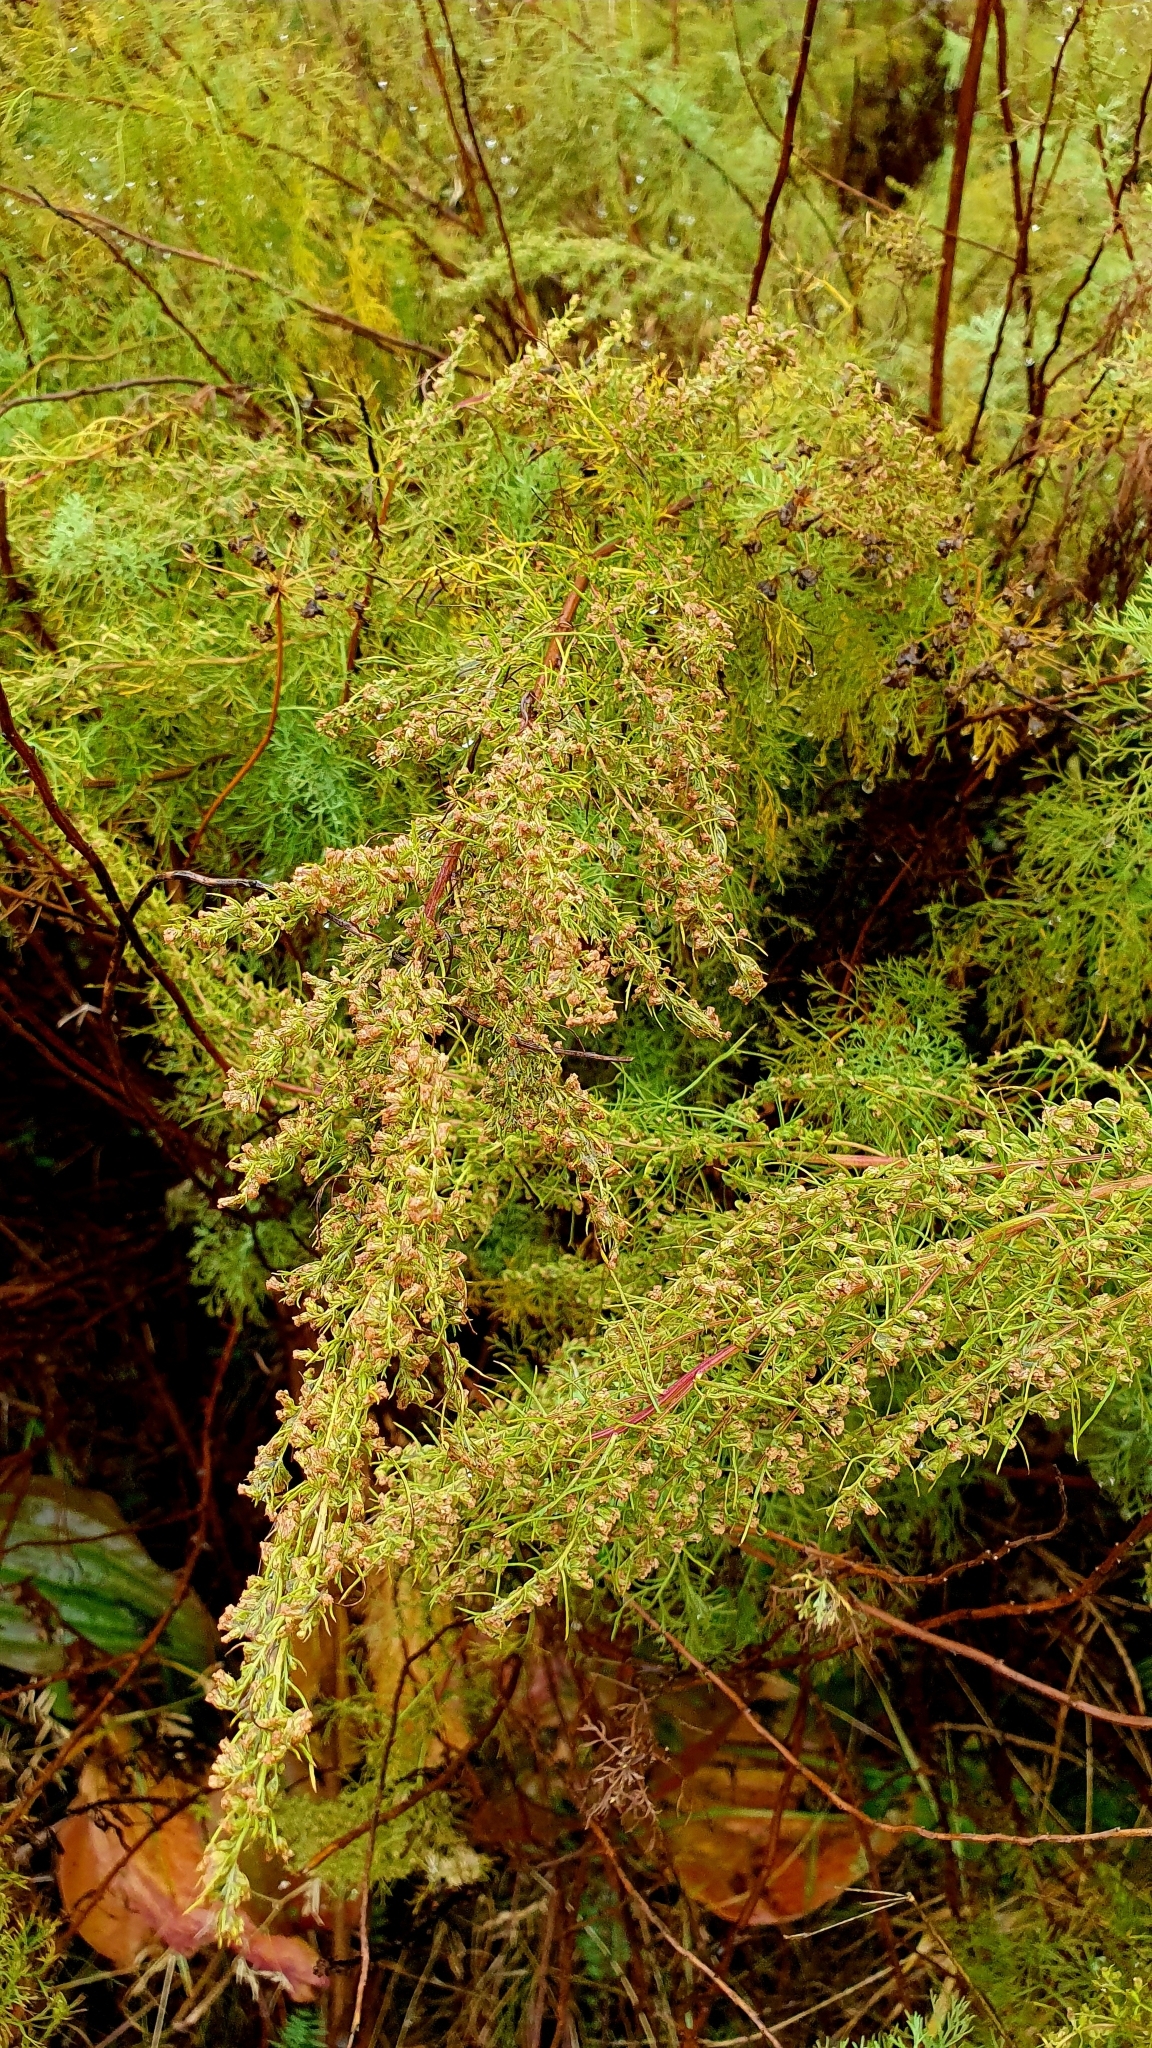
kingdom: Plantae
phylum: Tracheophyta
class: Magnoliopsida
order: Asterales
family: Asteraceae
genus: Artemisia
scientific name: Artemisia abrotanum
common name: Southernwood
